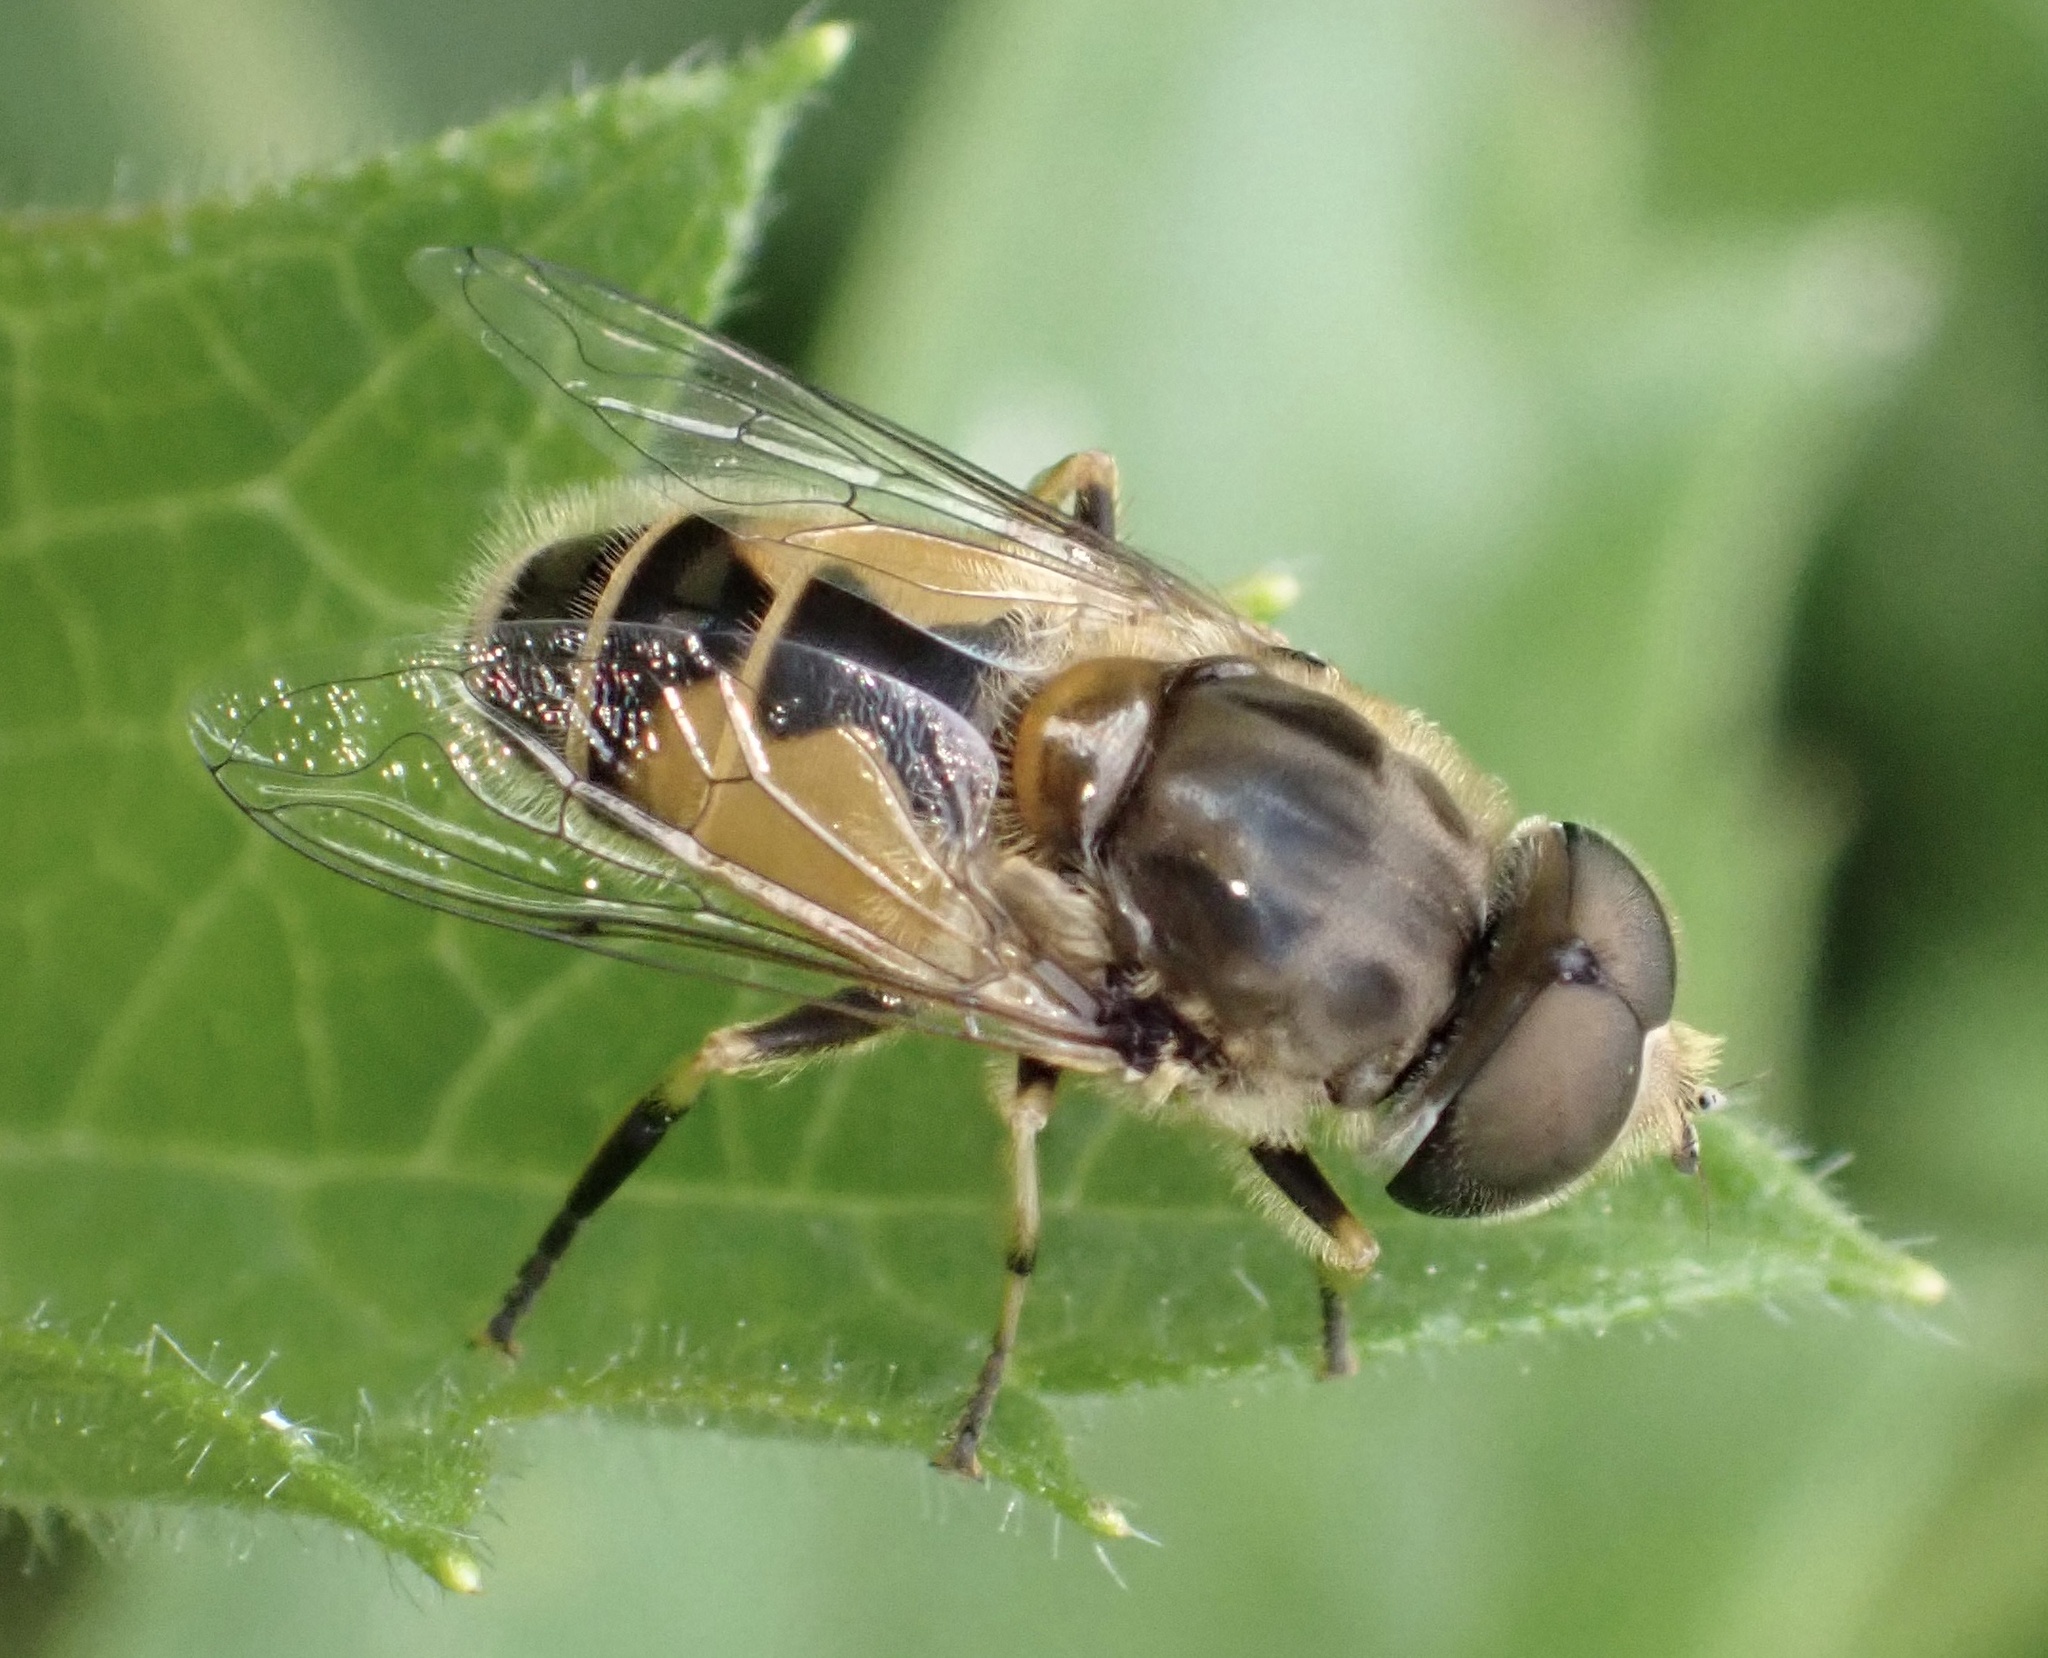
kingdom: Animalia
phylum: Arthropoda
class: Insecta
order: Diptera
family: Syrphidae
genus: Eristalis
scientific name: Eristalis arbustorum
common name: Hover fly
